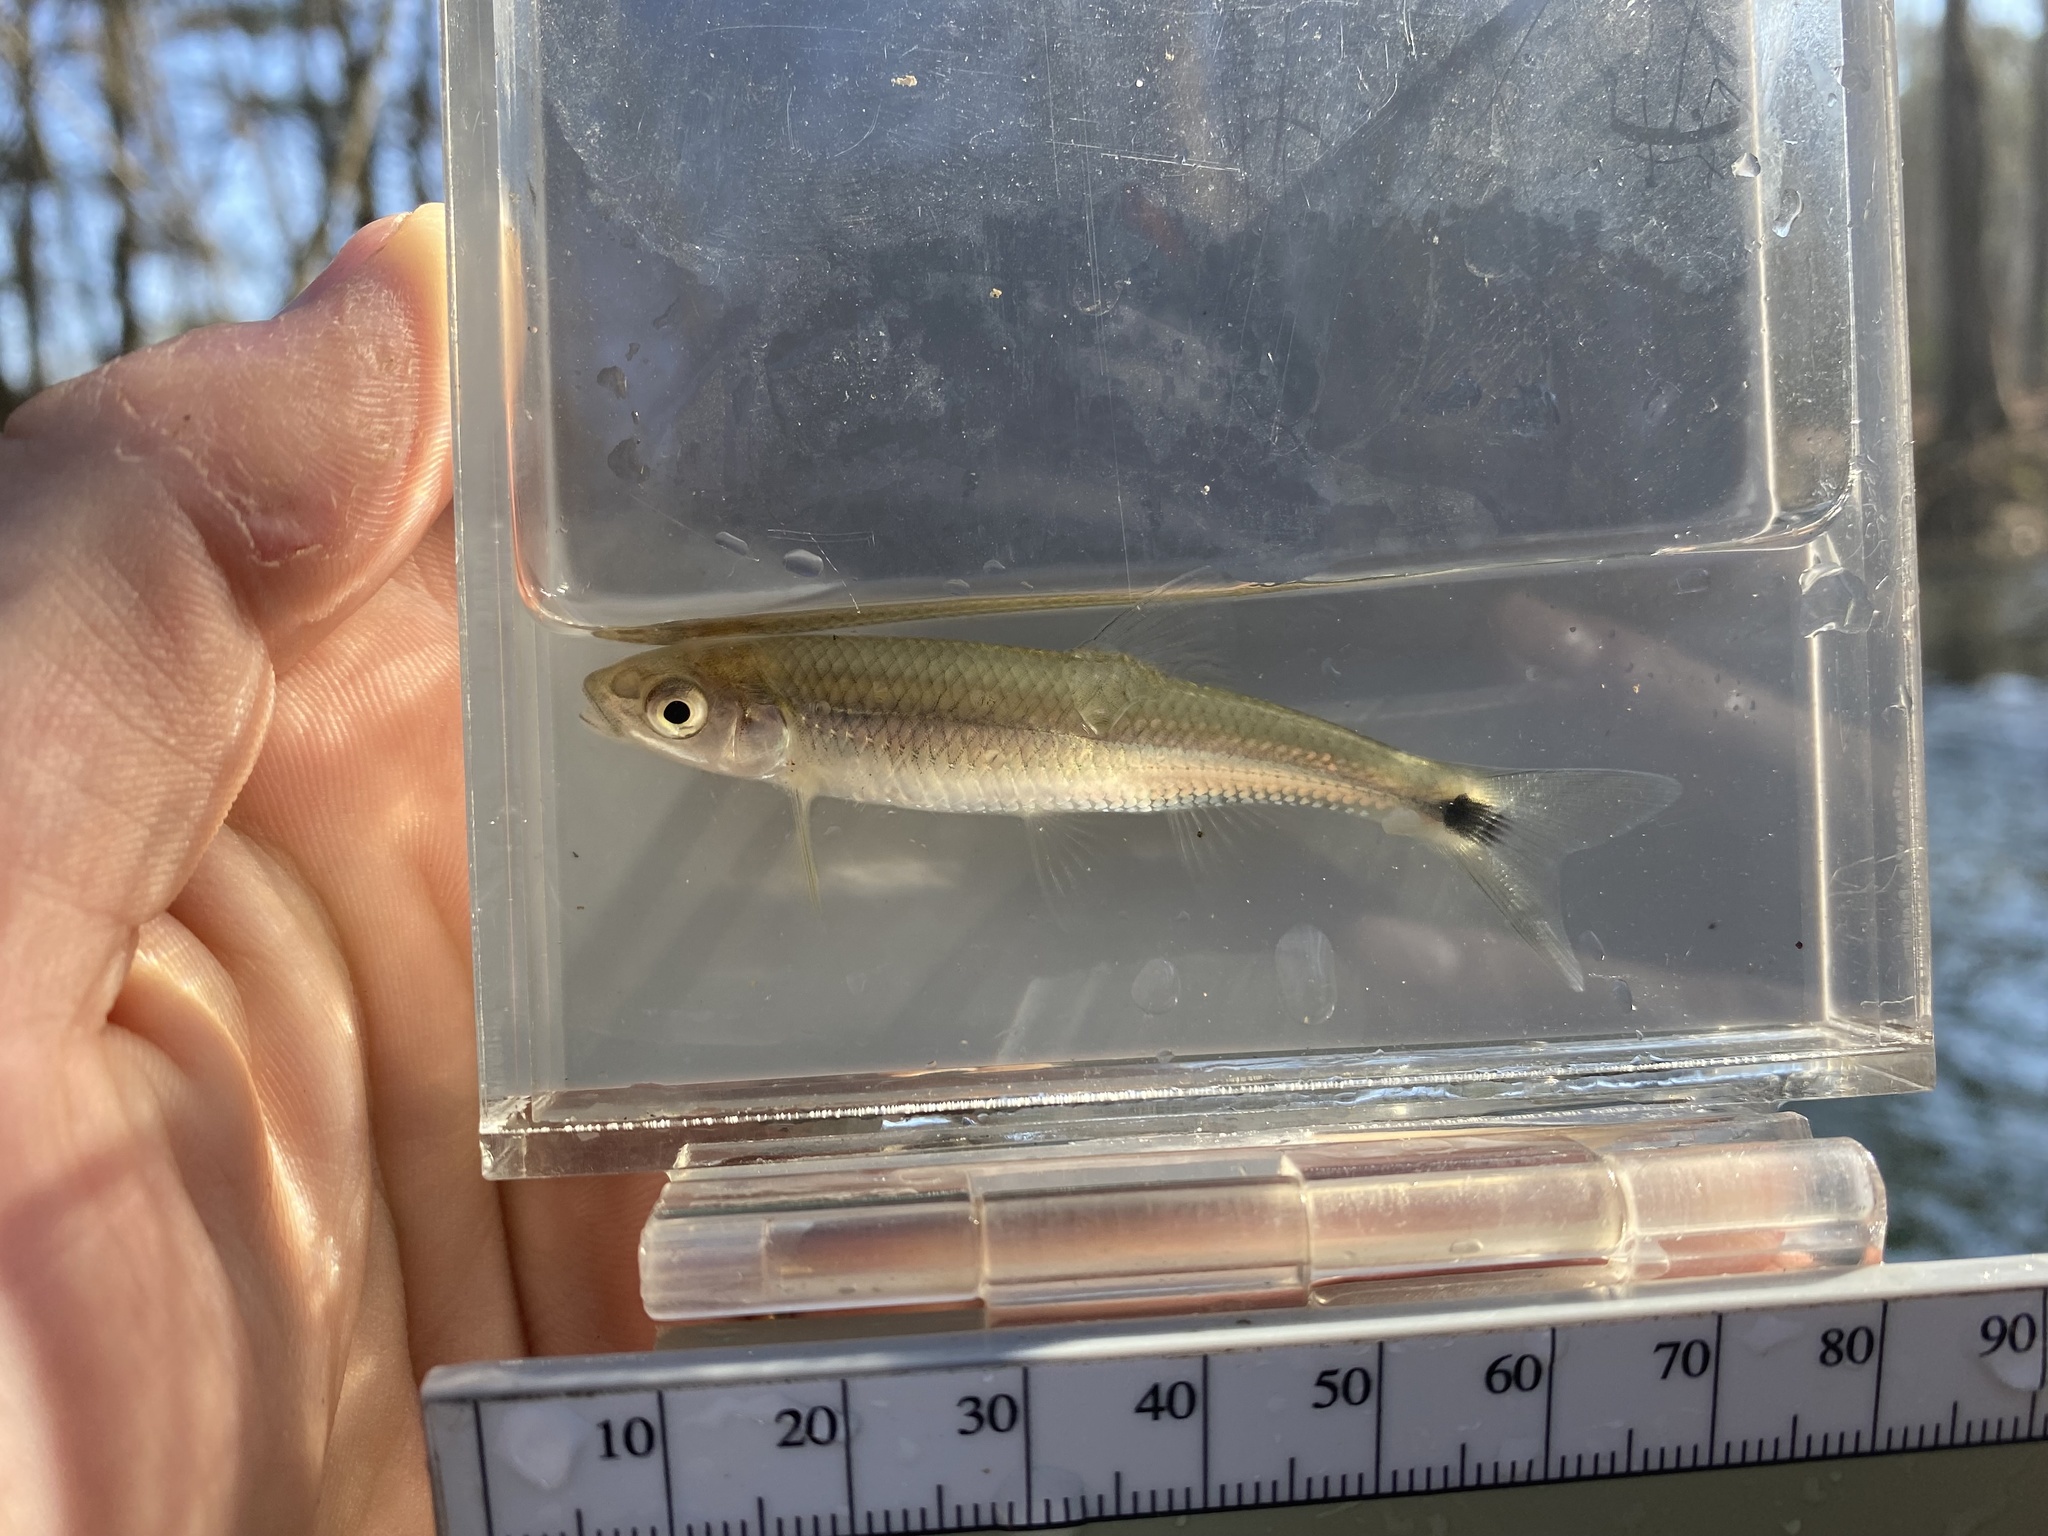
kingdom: Animalia
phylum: Chordata
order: Cypriniformes
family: Cyprinidae
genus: Cyprinella
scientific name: Cyprinella stigmatura
